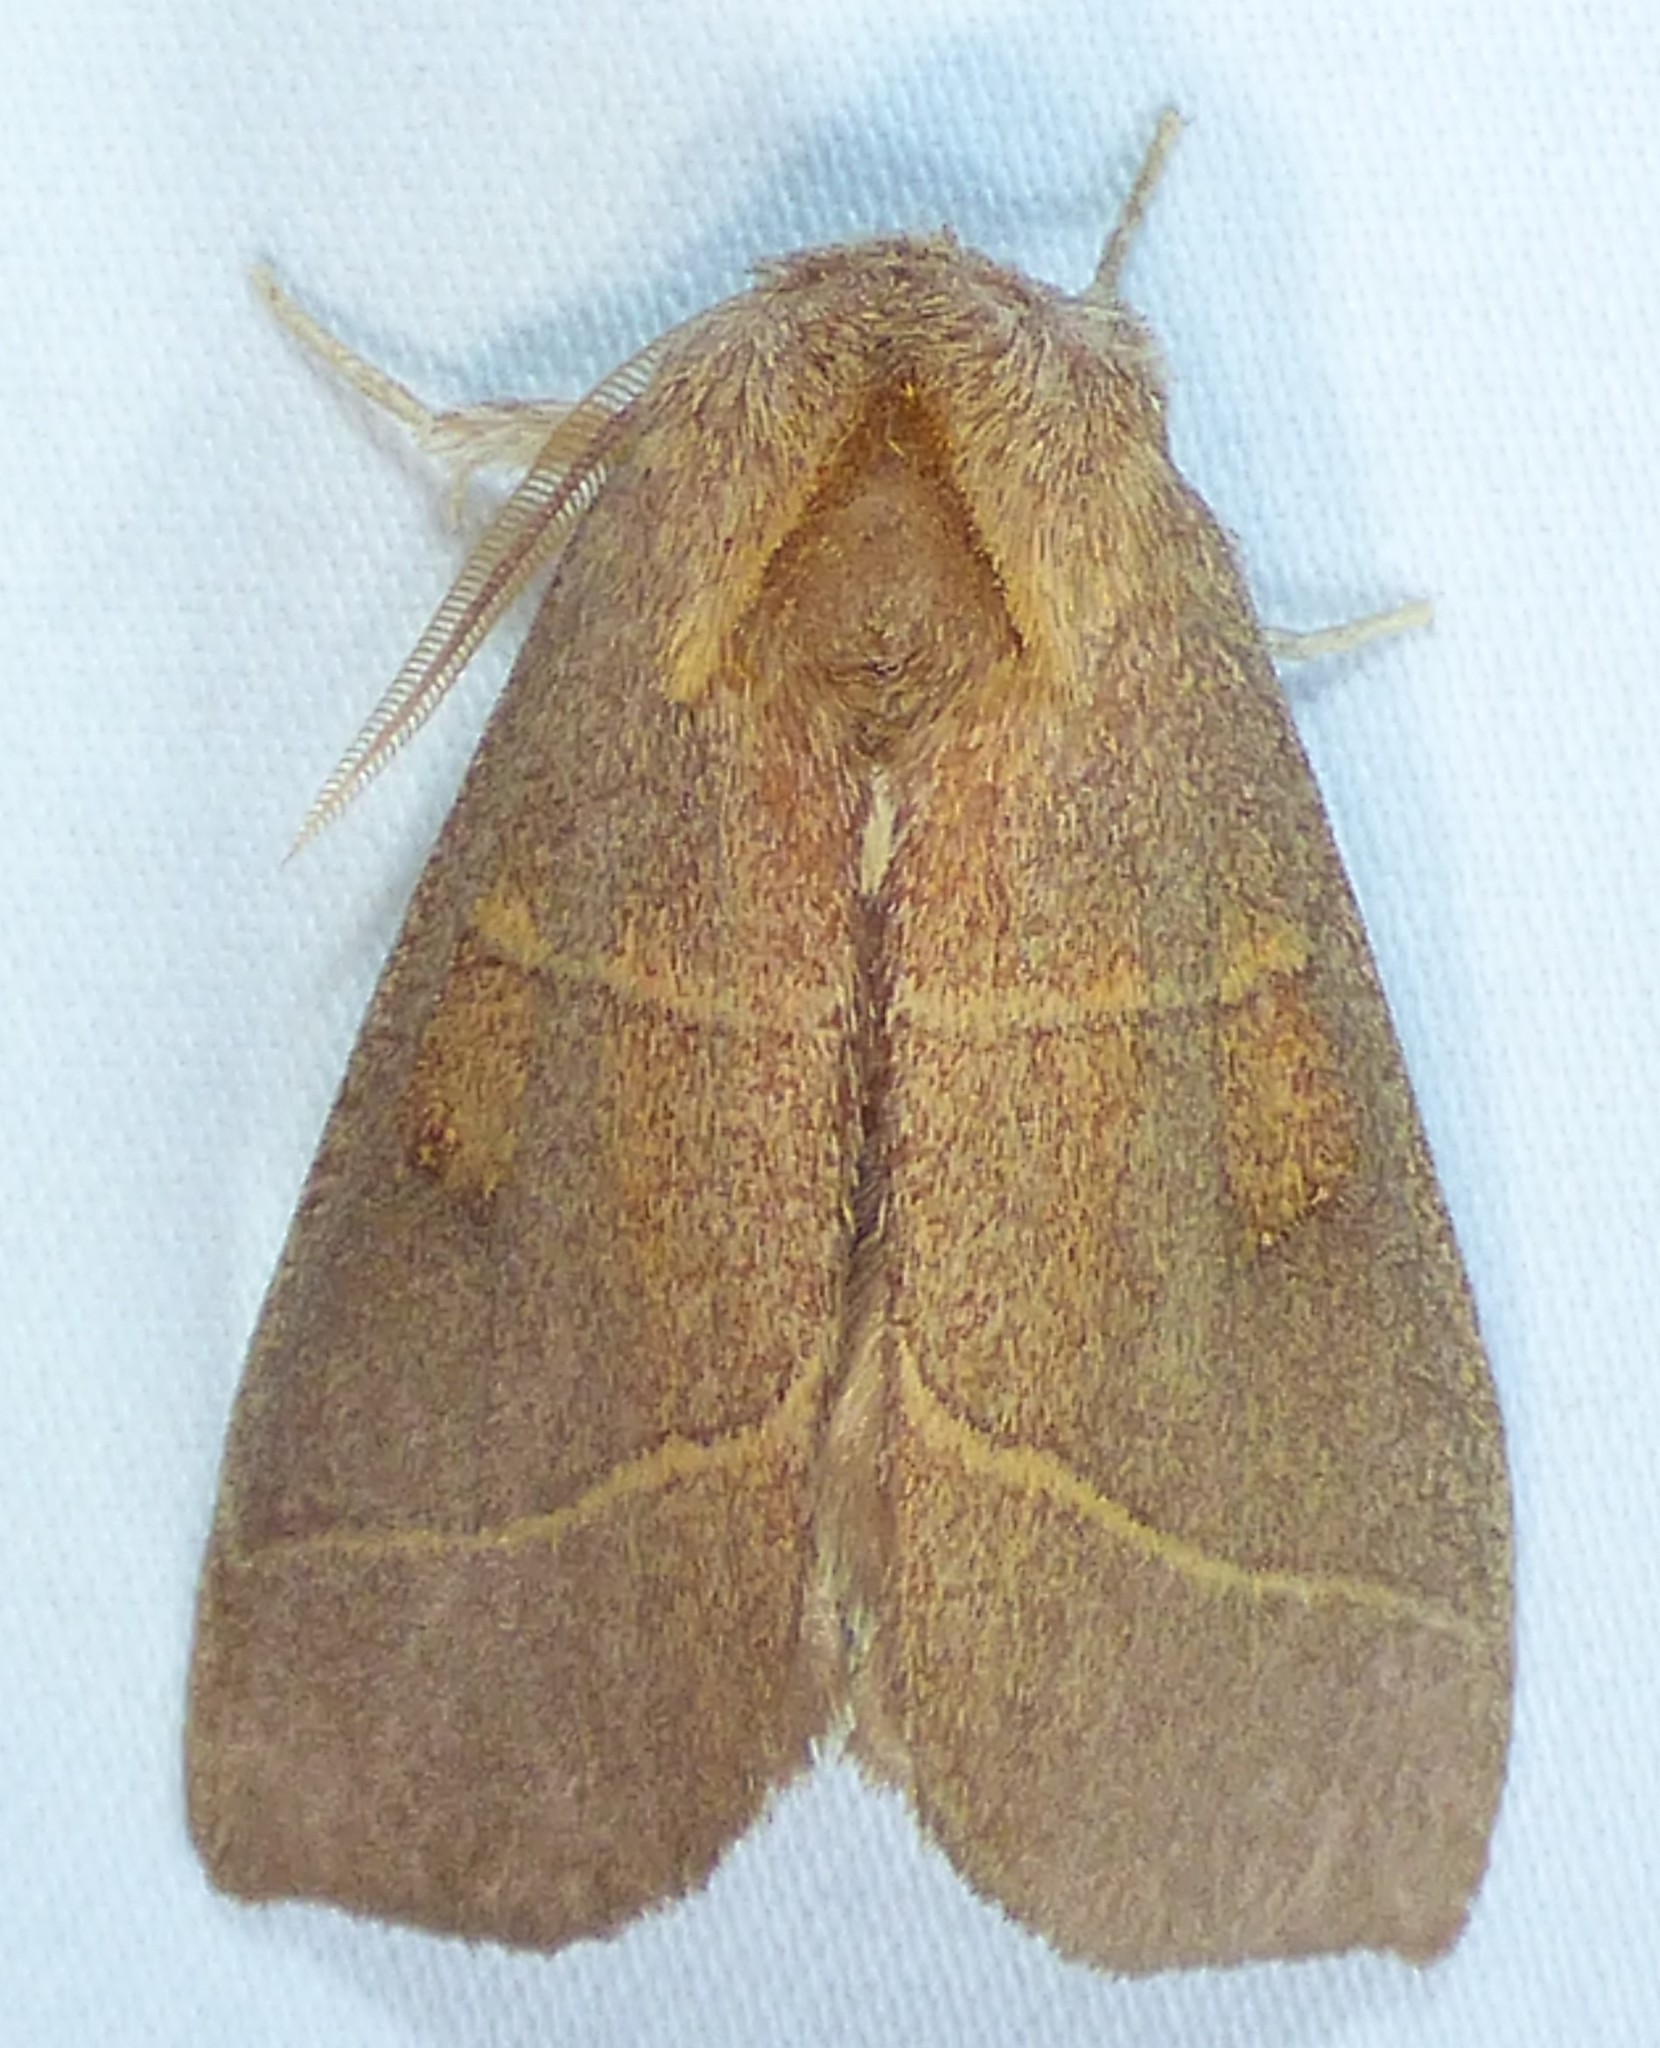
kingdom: Animalia
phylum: Arthropoda
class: Insecta
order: Lepidoptera
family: Notodontidae
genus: Nadata
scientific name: Nadata gibbosa
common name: White-dotted prominent
